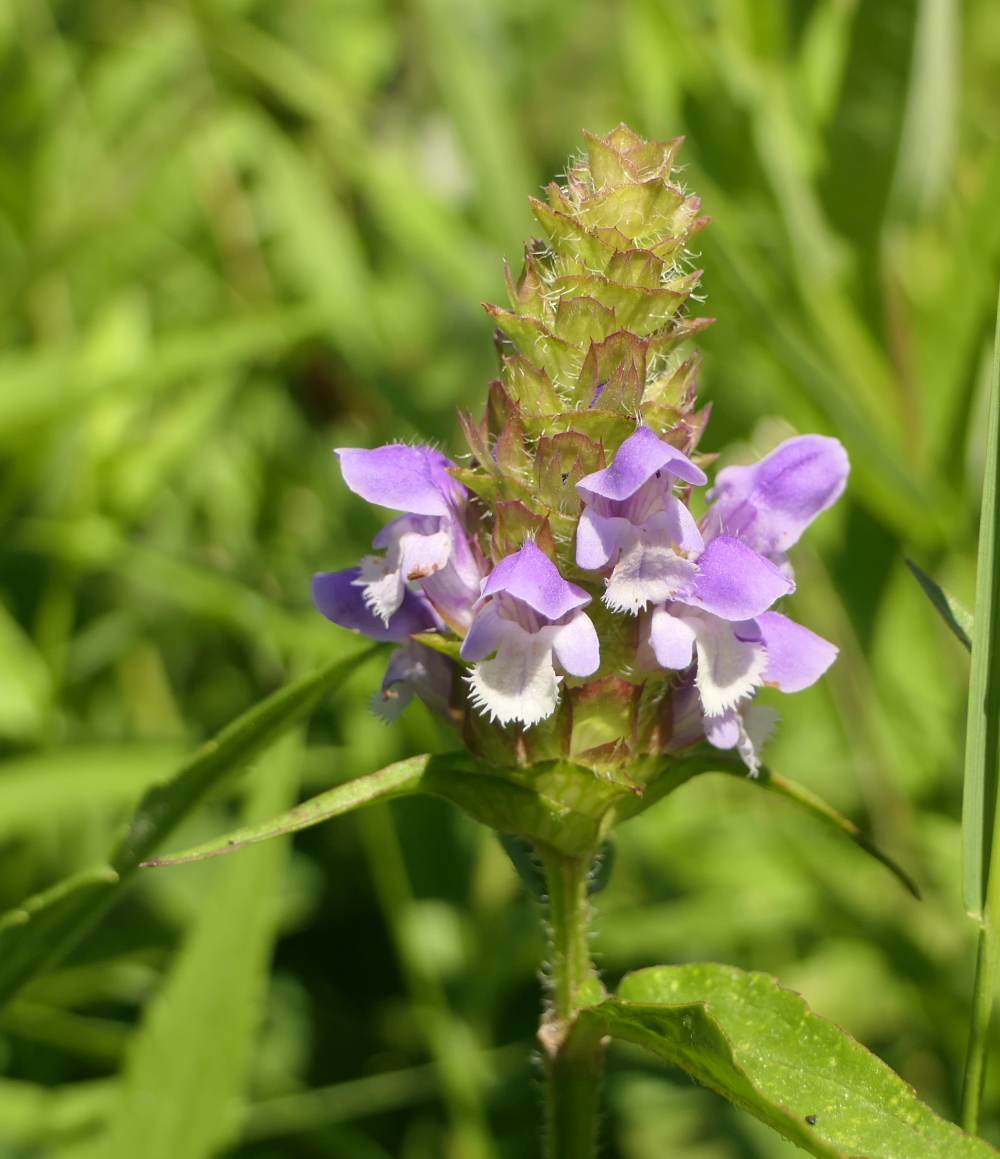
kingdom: Plantae
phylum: Tracheophyta
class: Magnoliopsida
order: Lamiales
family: Lamiaceae
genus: Prunella
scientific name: Prunella vulgaris
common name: Heal-all
